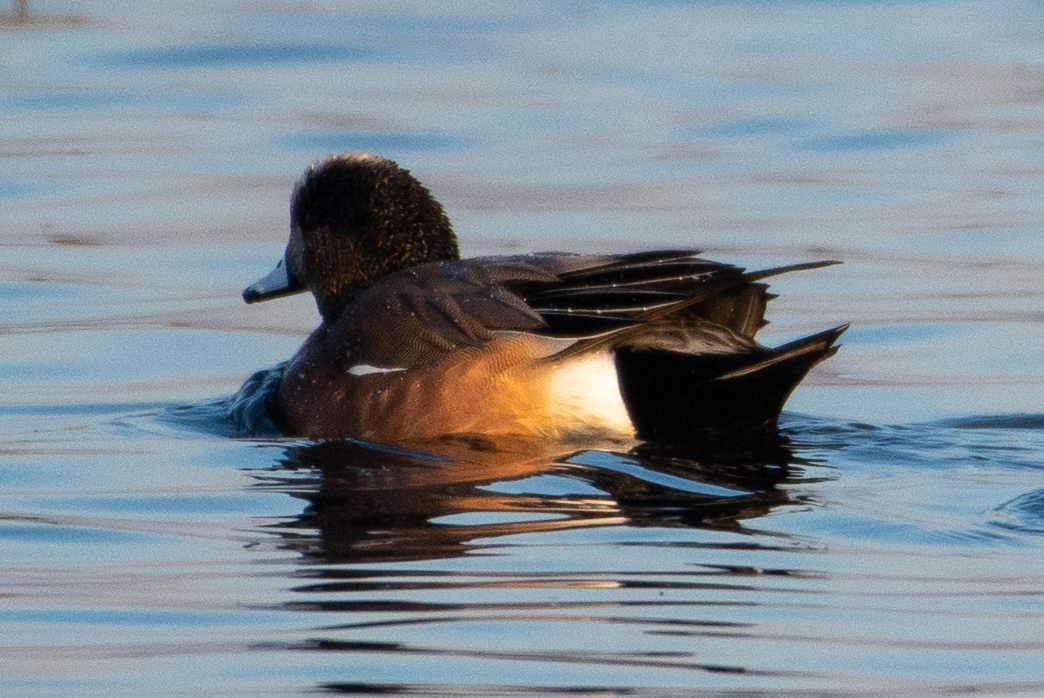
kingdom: Animalia
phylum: Chordata
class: Aves
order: Anseriformes
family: Anatidae
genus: Mareca
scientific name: Mareca americana
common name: American wigeon
